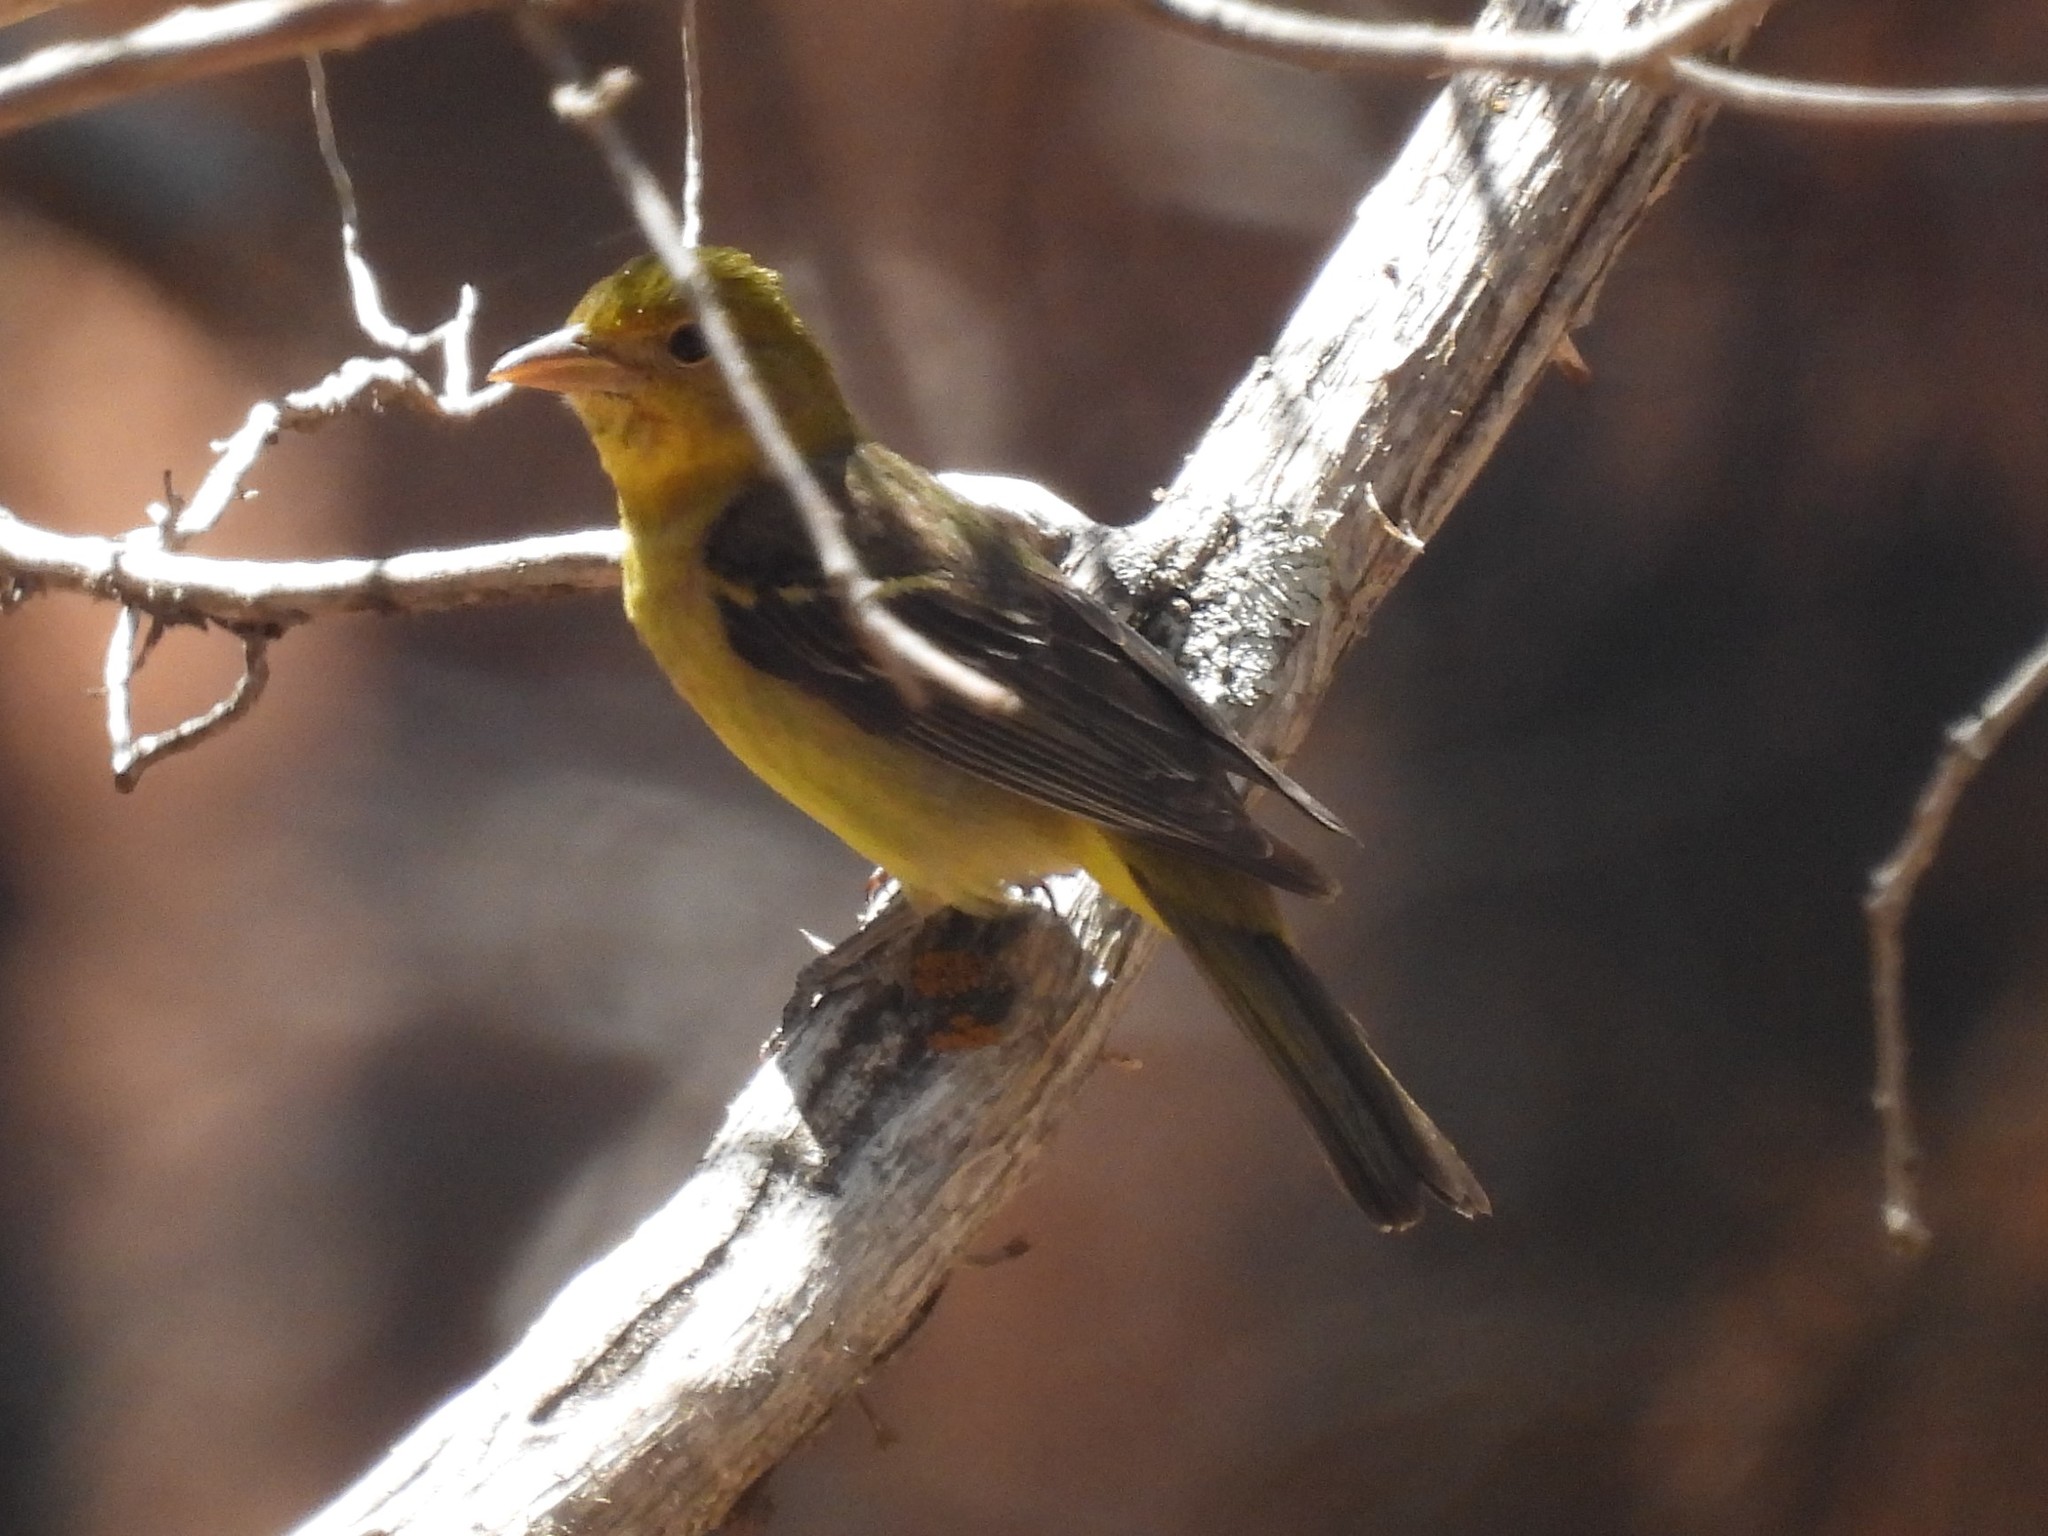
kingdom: Animalia
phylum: Chordata
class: Aves
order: Passeriformes
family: Cardinalidae
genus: Piranga
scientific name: Piranga ludoviciana
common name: Western tanager
